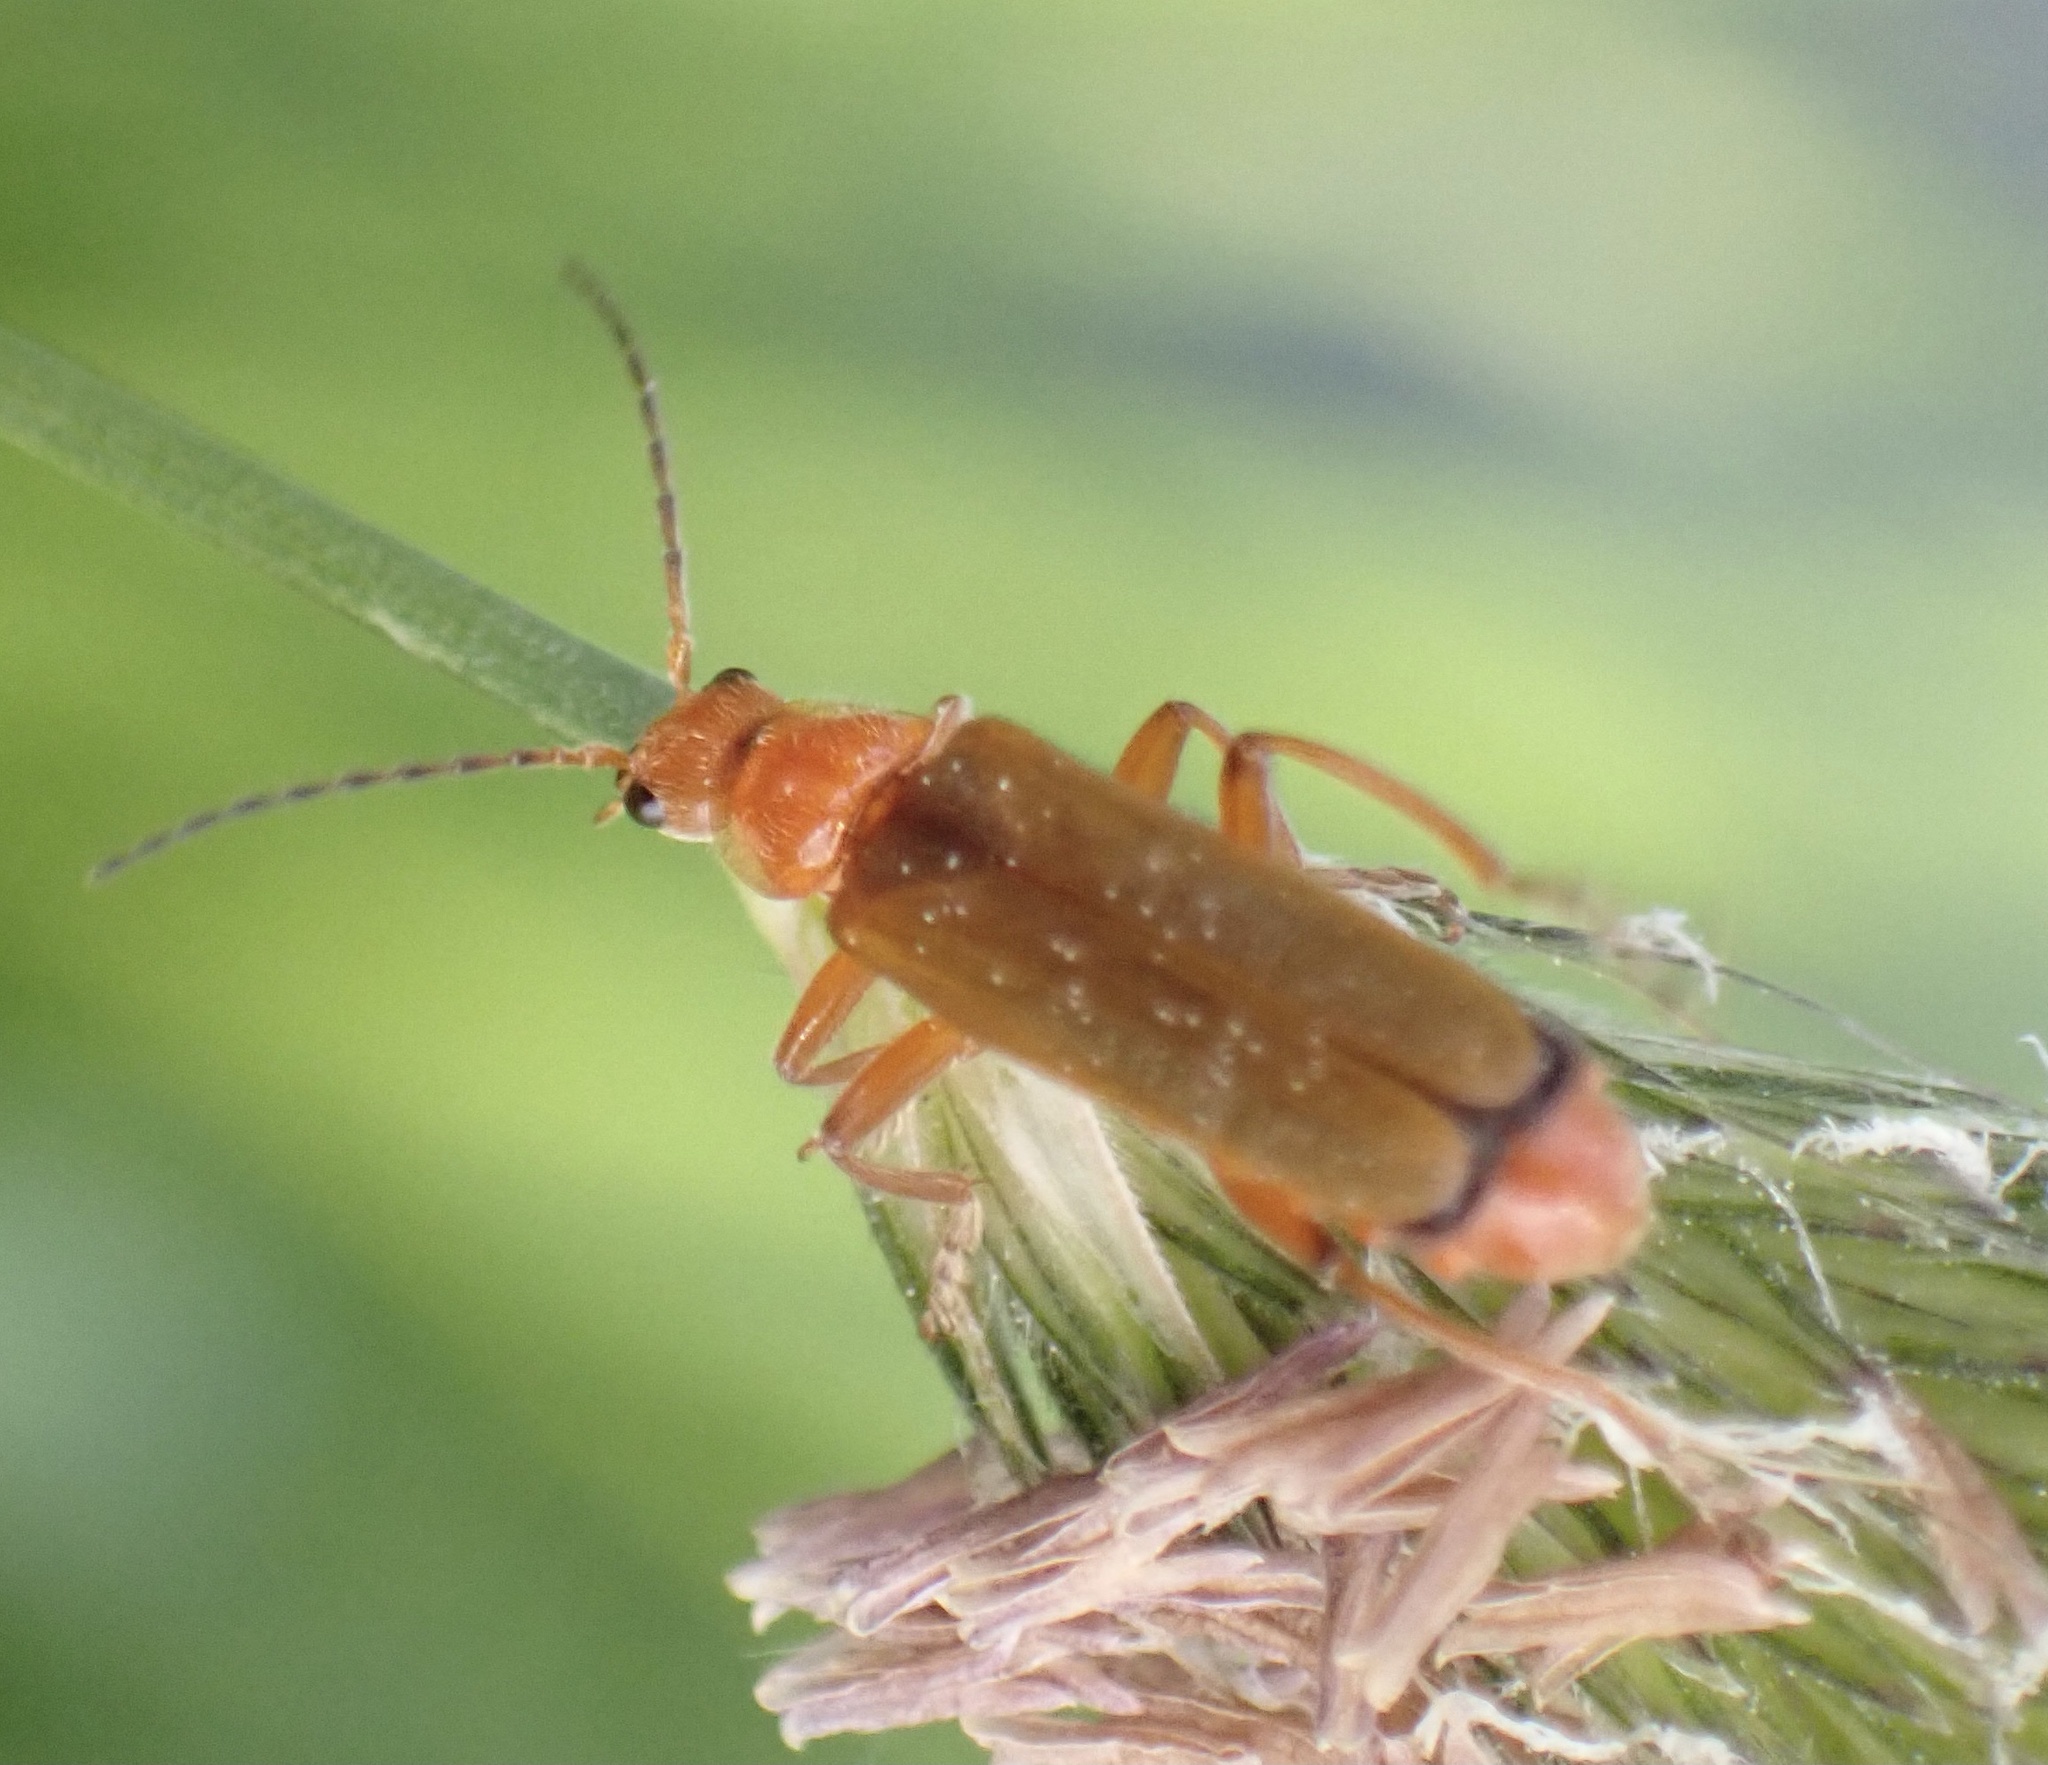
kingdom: Animalia
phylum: Arthropoda
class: Insecta
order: Coleoptera
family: Cantharidae
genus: Cantharis
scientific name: Cantharis pallida
